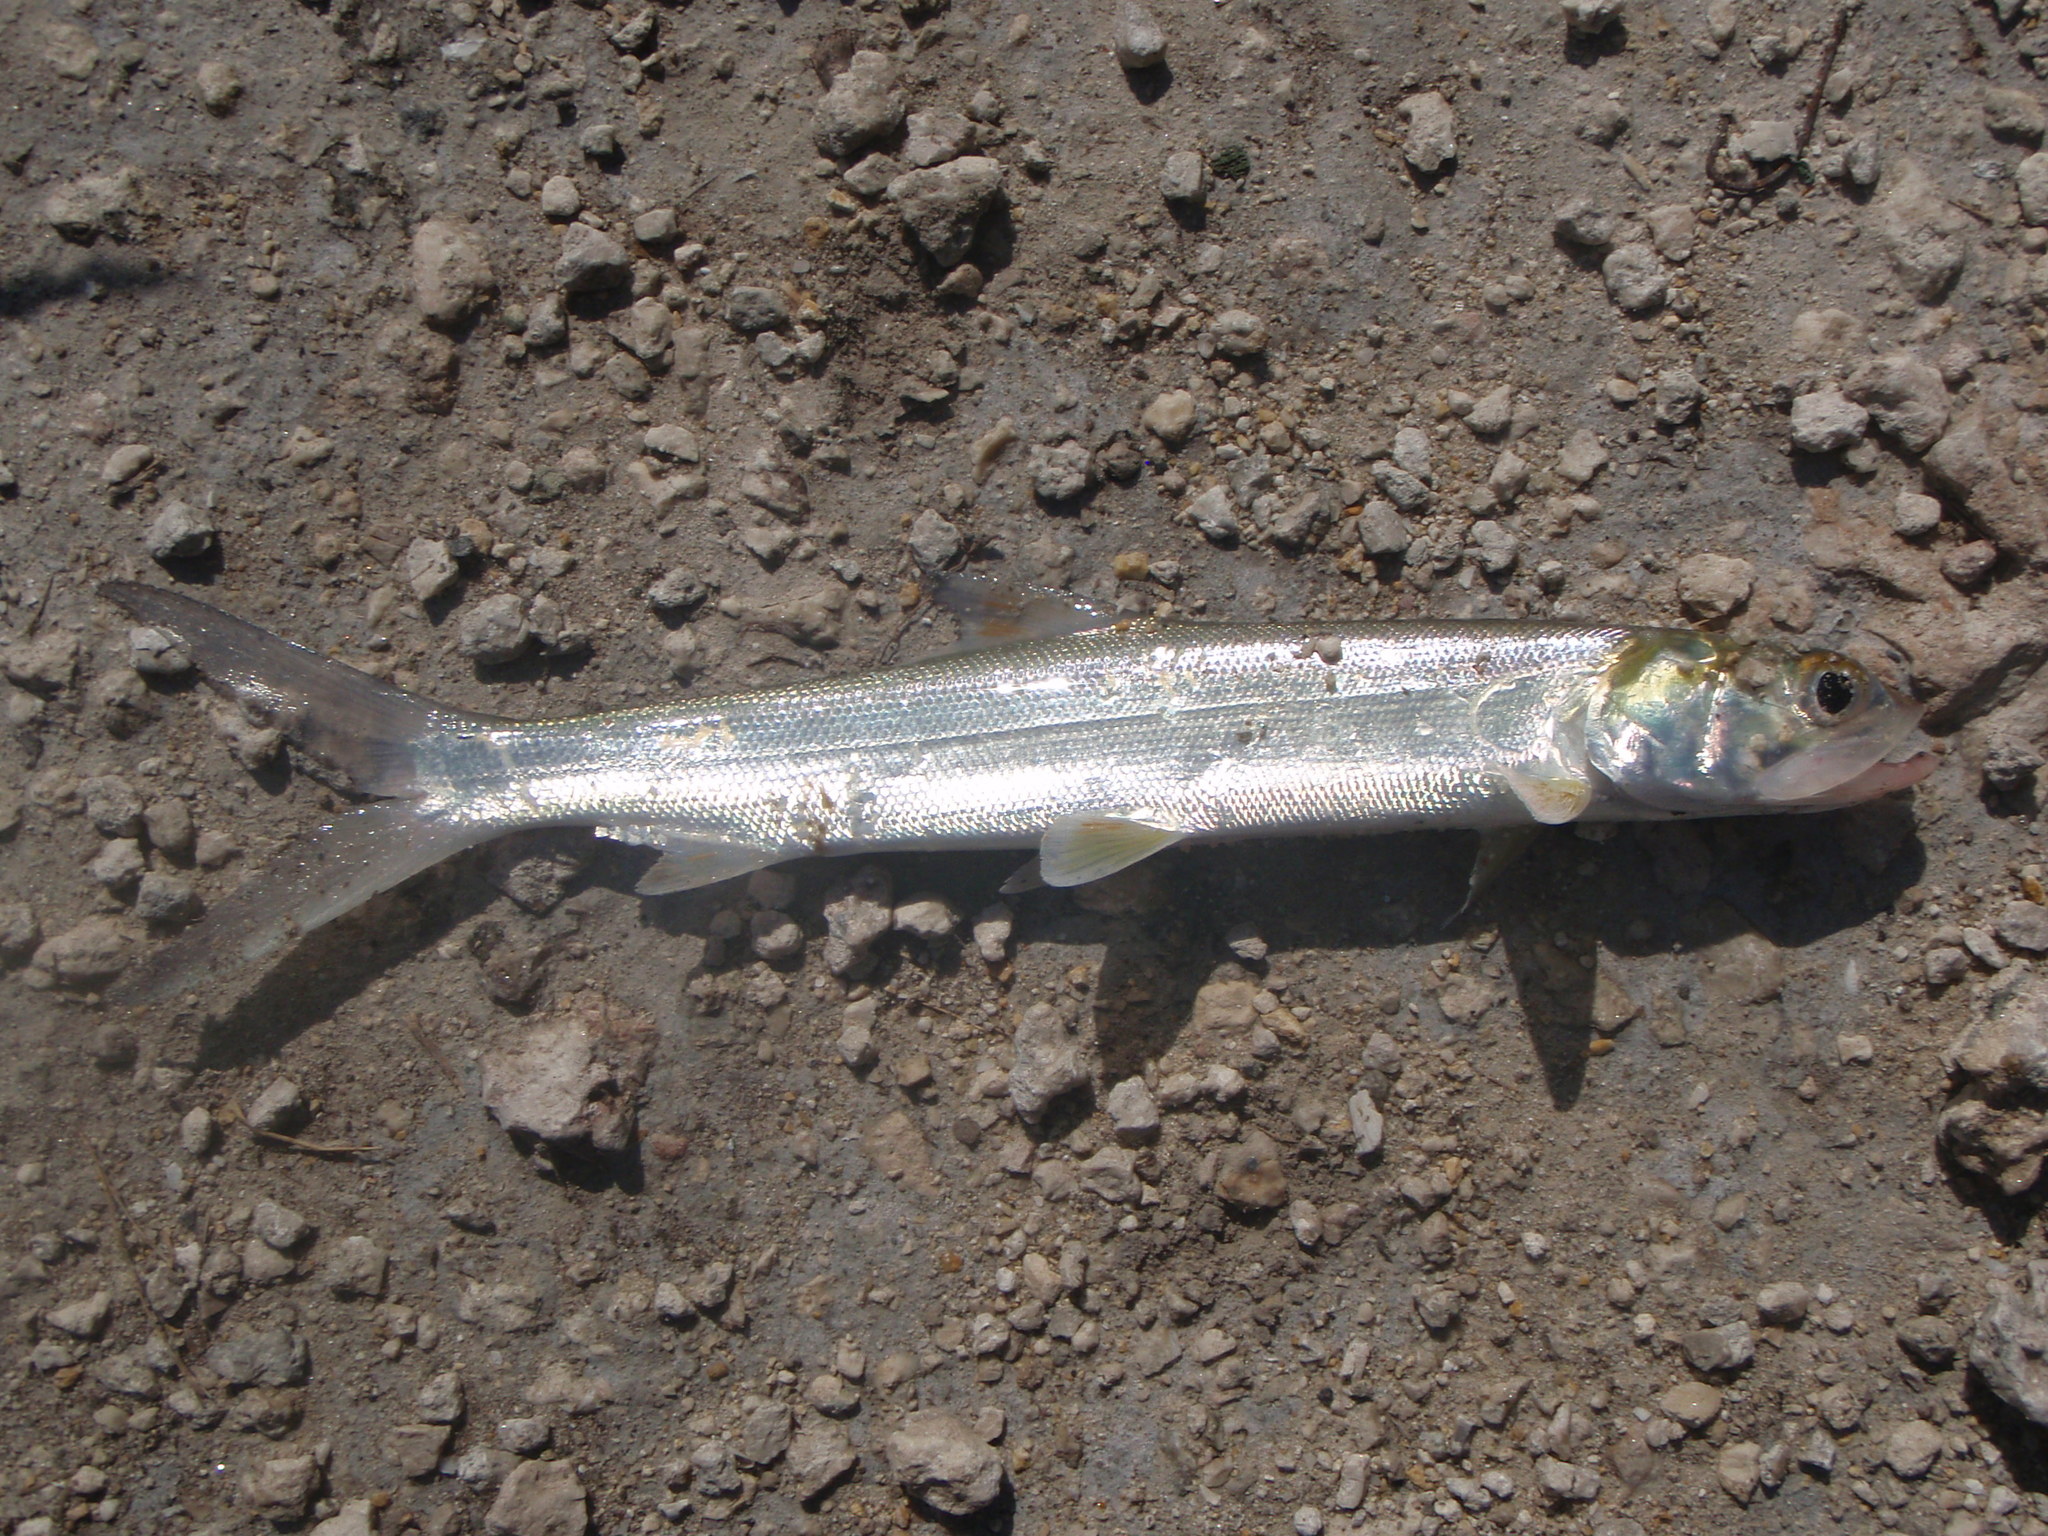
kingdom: Animalia
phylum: Chordata
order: Elopiformes
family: Elopidae
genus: Elops
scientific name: Elops saurus
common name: Ladyfish
